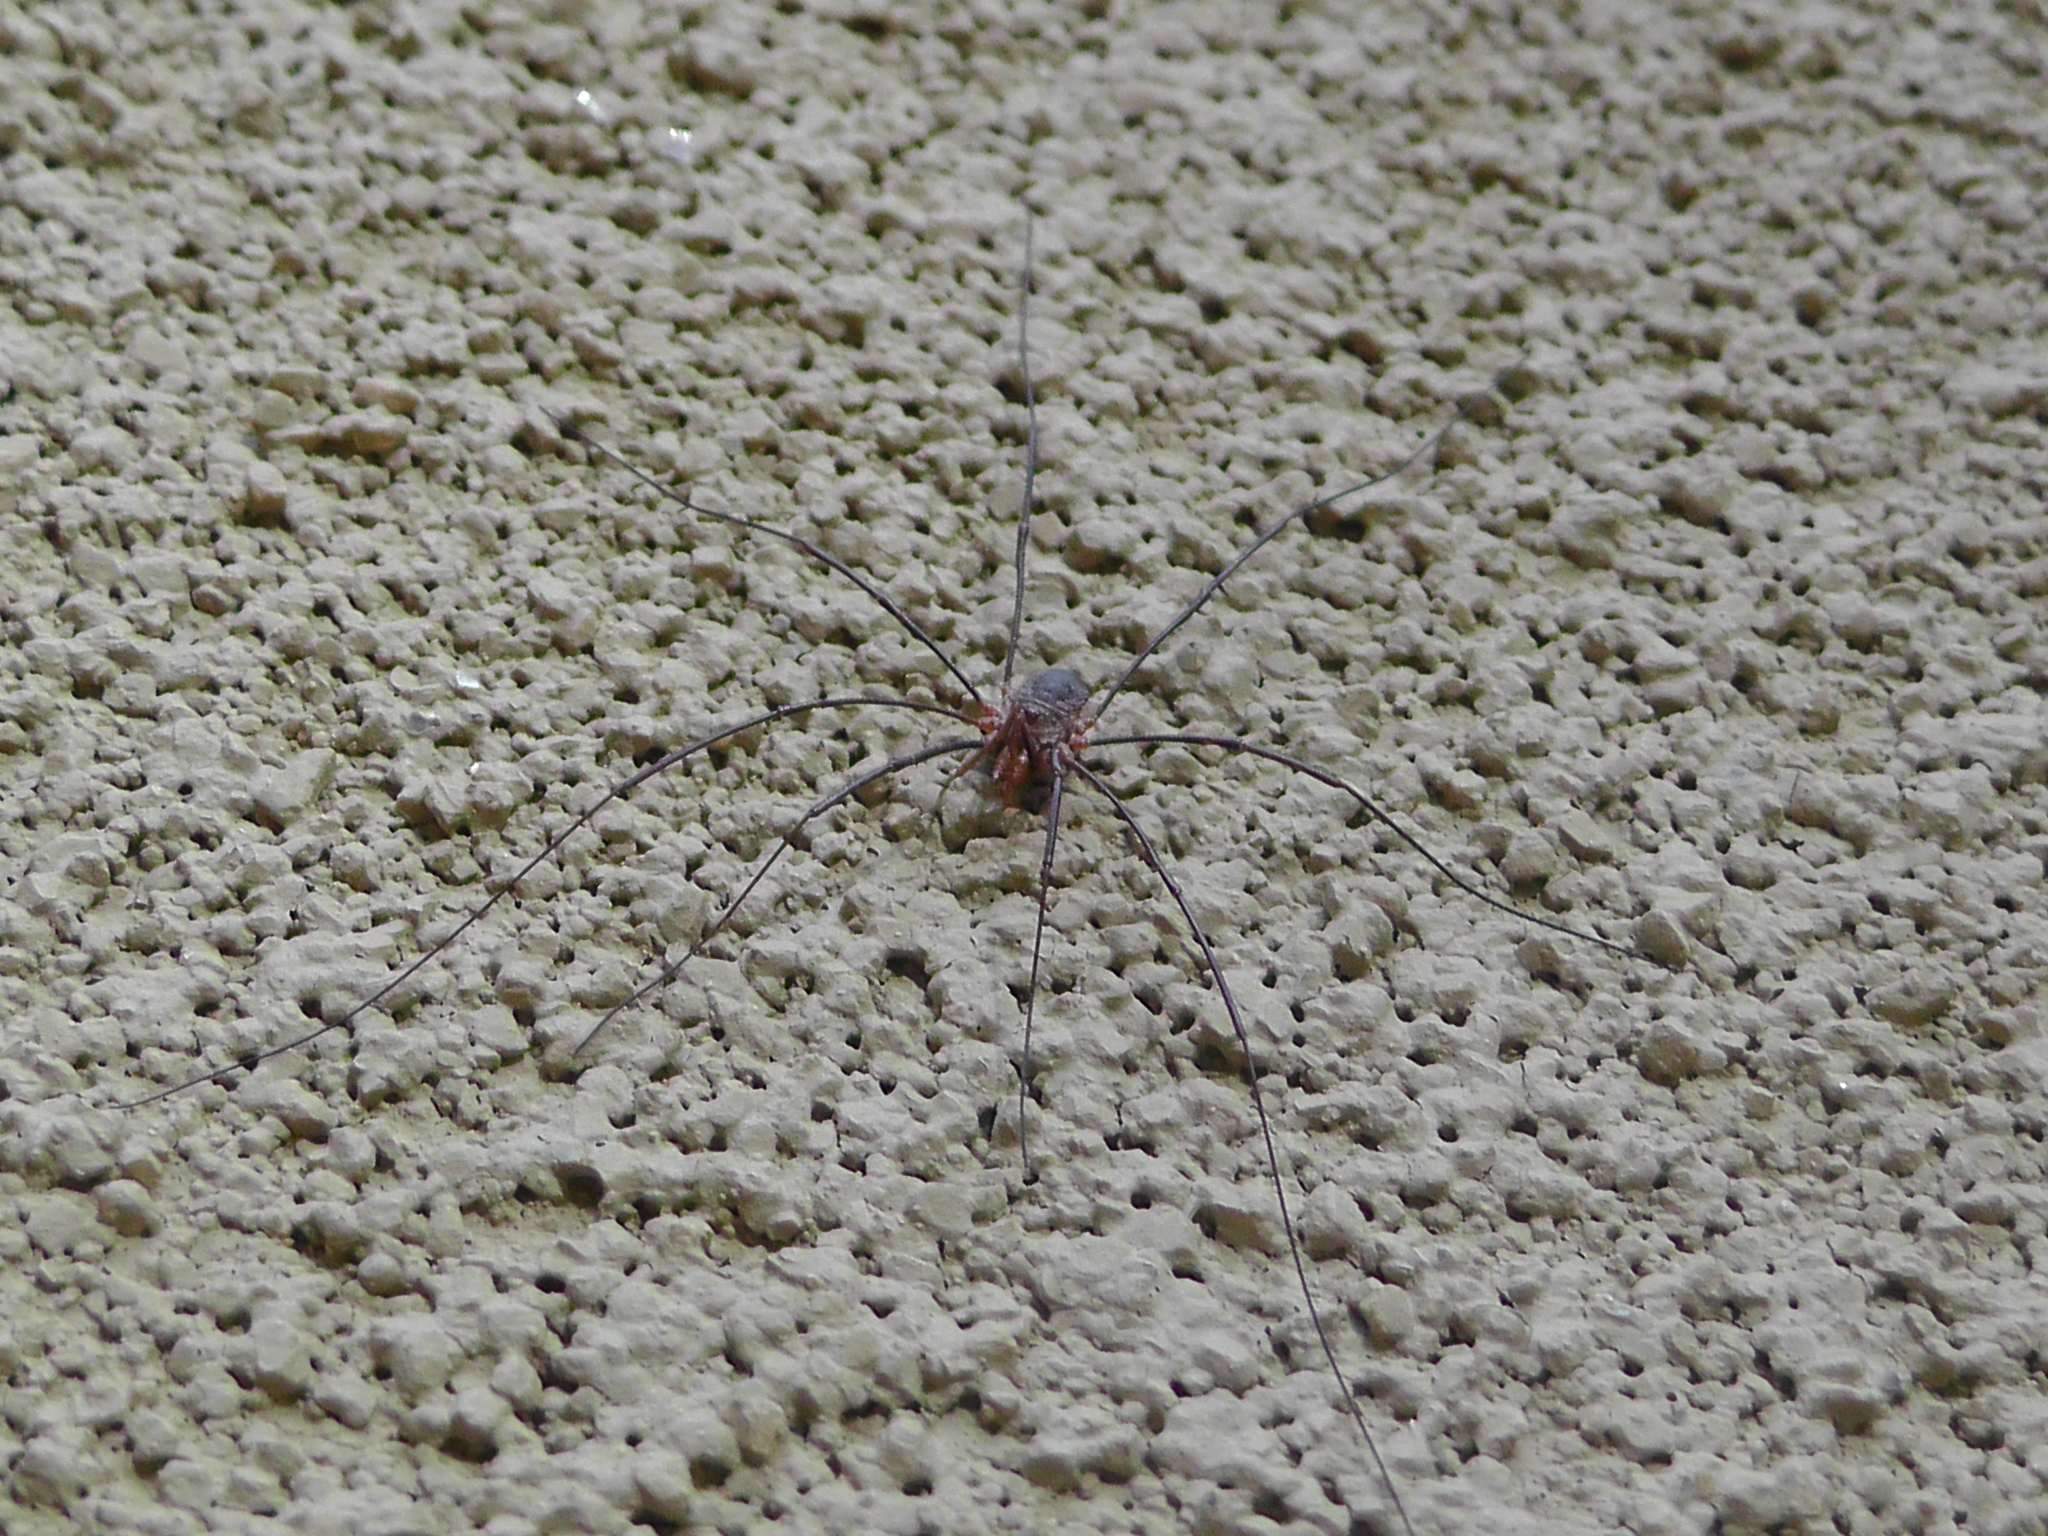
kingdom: Animalia
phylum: Arthropoda
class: Arachnida
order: Opiliones
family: Phalangiidae
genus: Phalangium
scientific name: Phalangium opilio
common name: Daddy longleg
